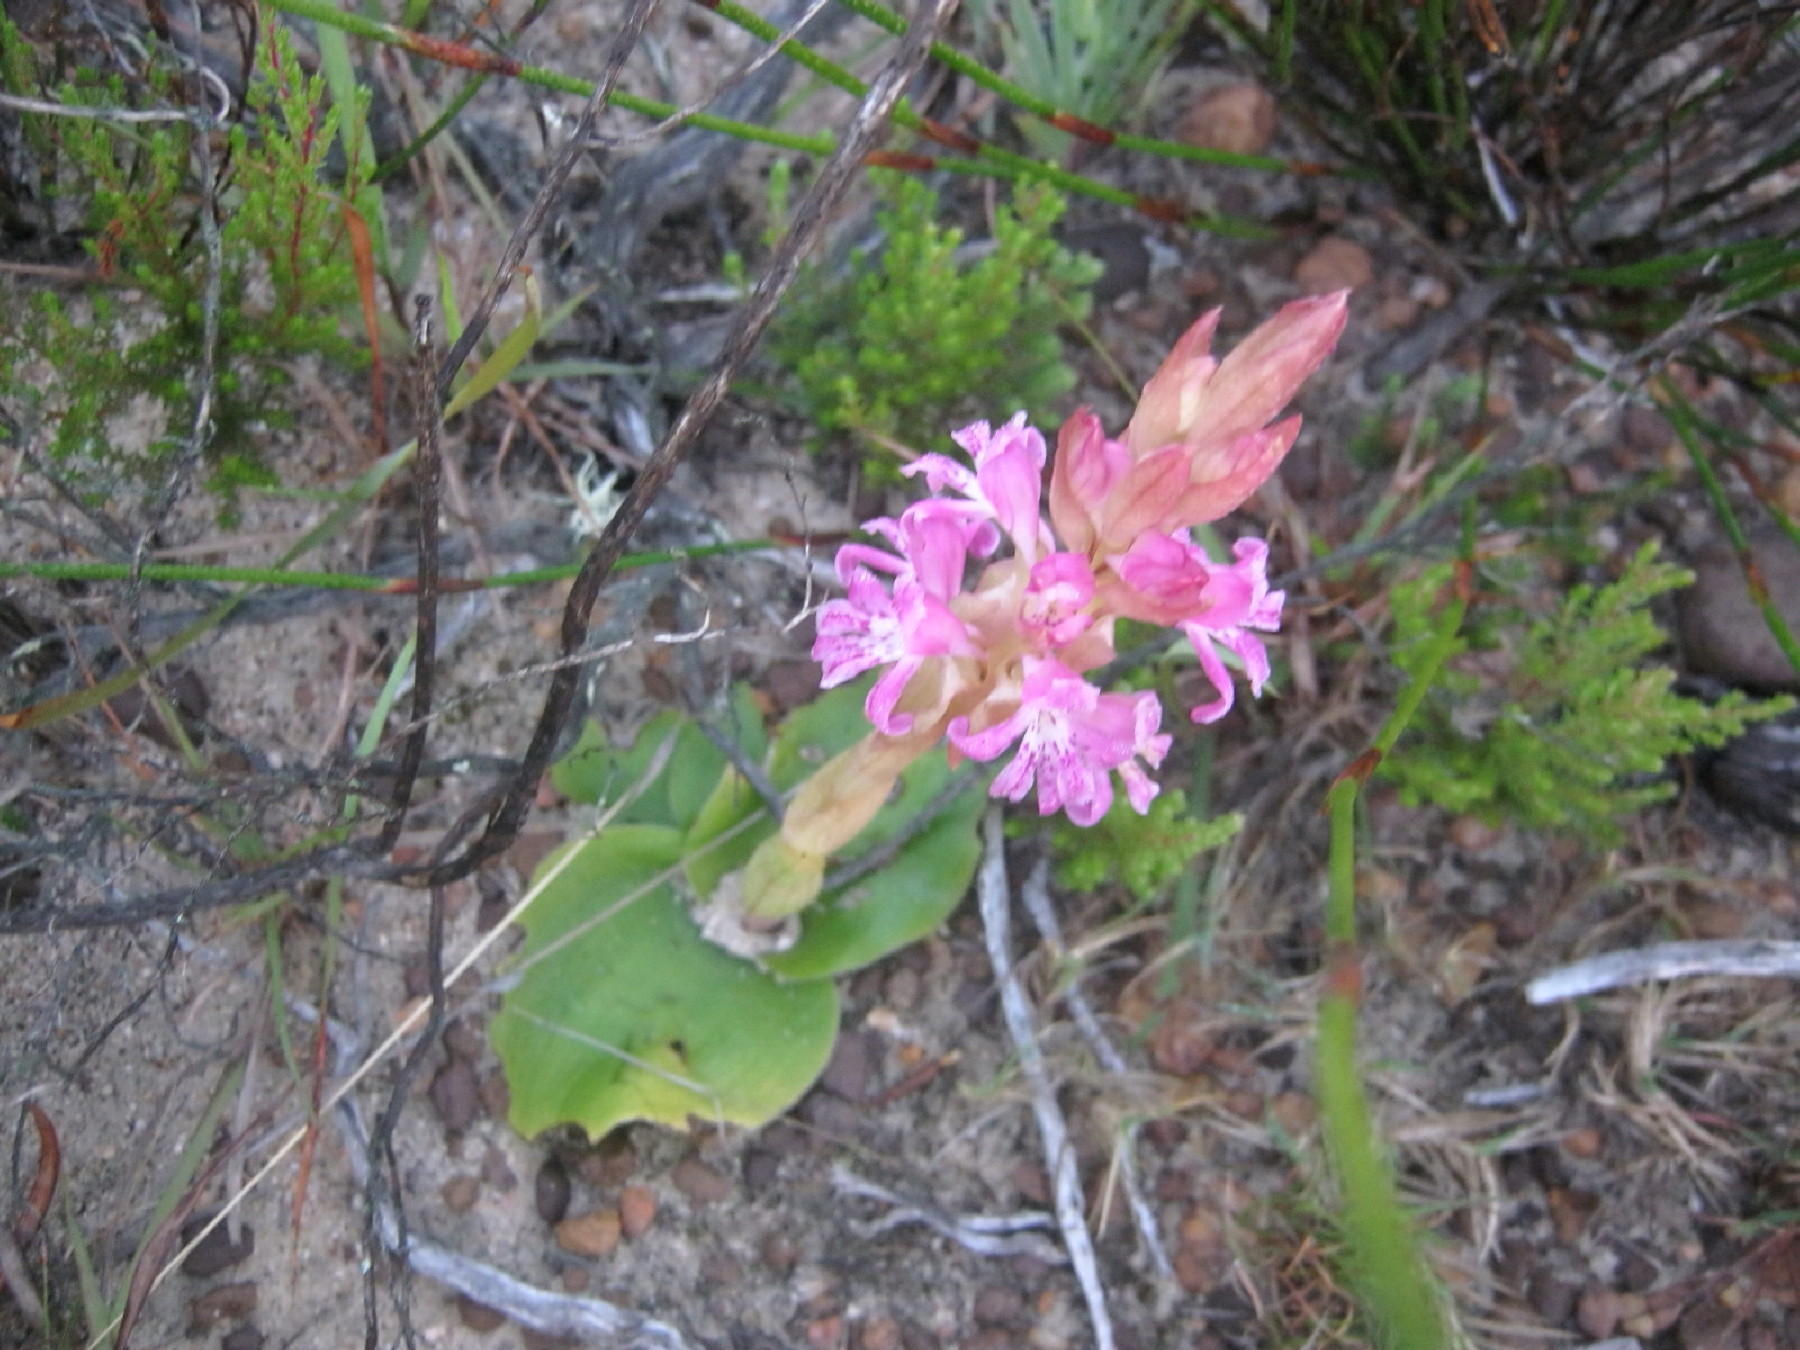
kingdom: Plantae
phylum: Tracheophyta
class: Liliopsida
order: Asparagales
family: Orchidaceae
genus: Satyrium
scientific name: Satyrium erectum
